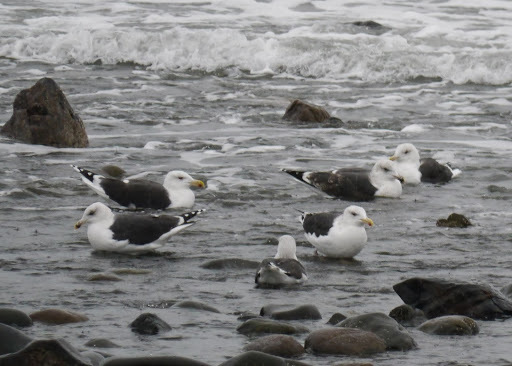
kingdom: Animalia
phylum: Chordata
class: Aves
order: Charadriiformes
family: Laridae
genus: Larus
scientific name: Larus marinus
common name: Great black-backed gull
